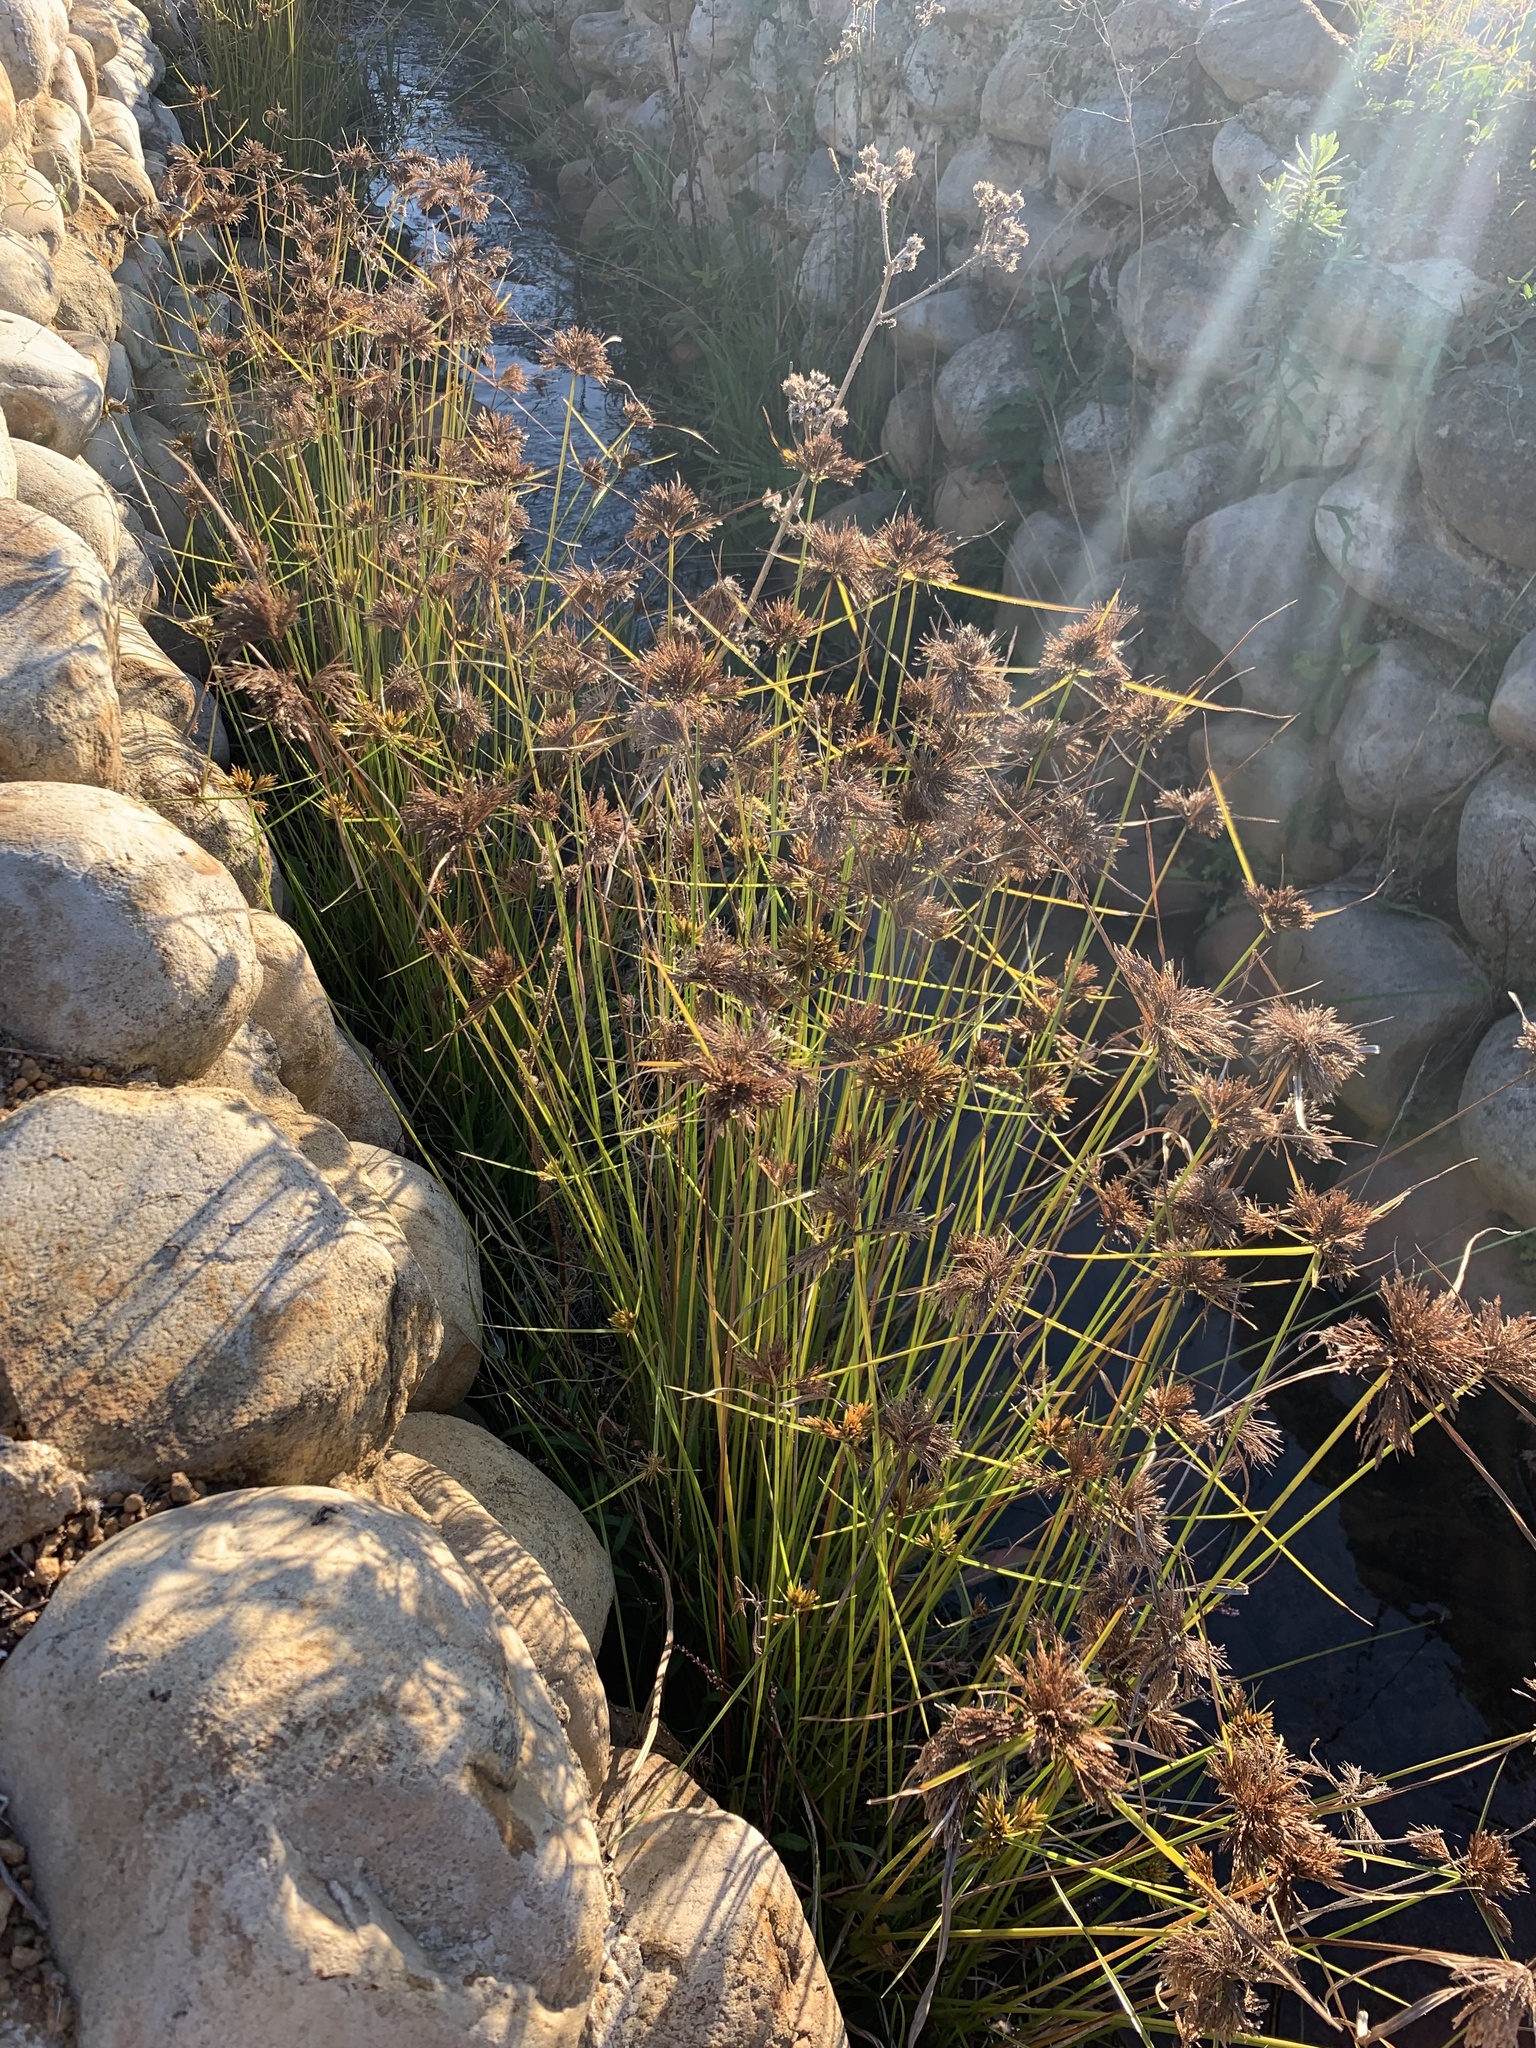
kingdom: Plantae
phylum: Tracheophyta
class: Liliopsida
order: Poales
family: Cyperaceae
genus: Cyperus
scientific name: Cyperus polystachyos
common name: Bunchy flat sedge
